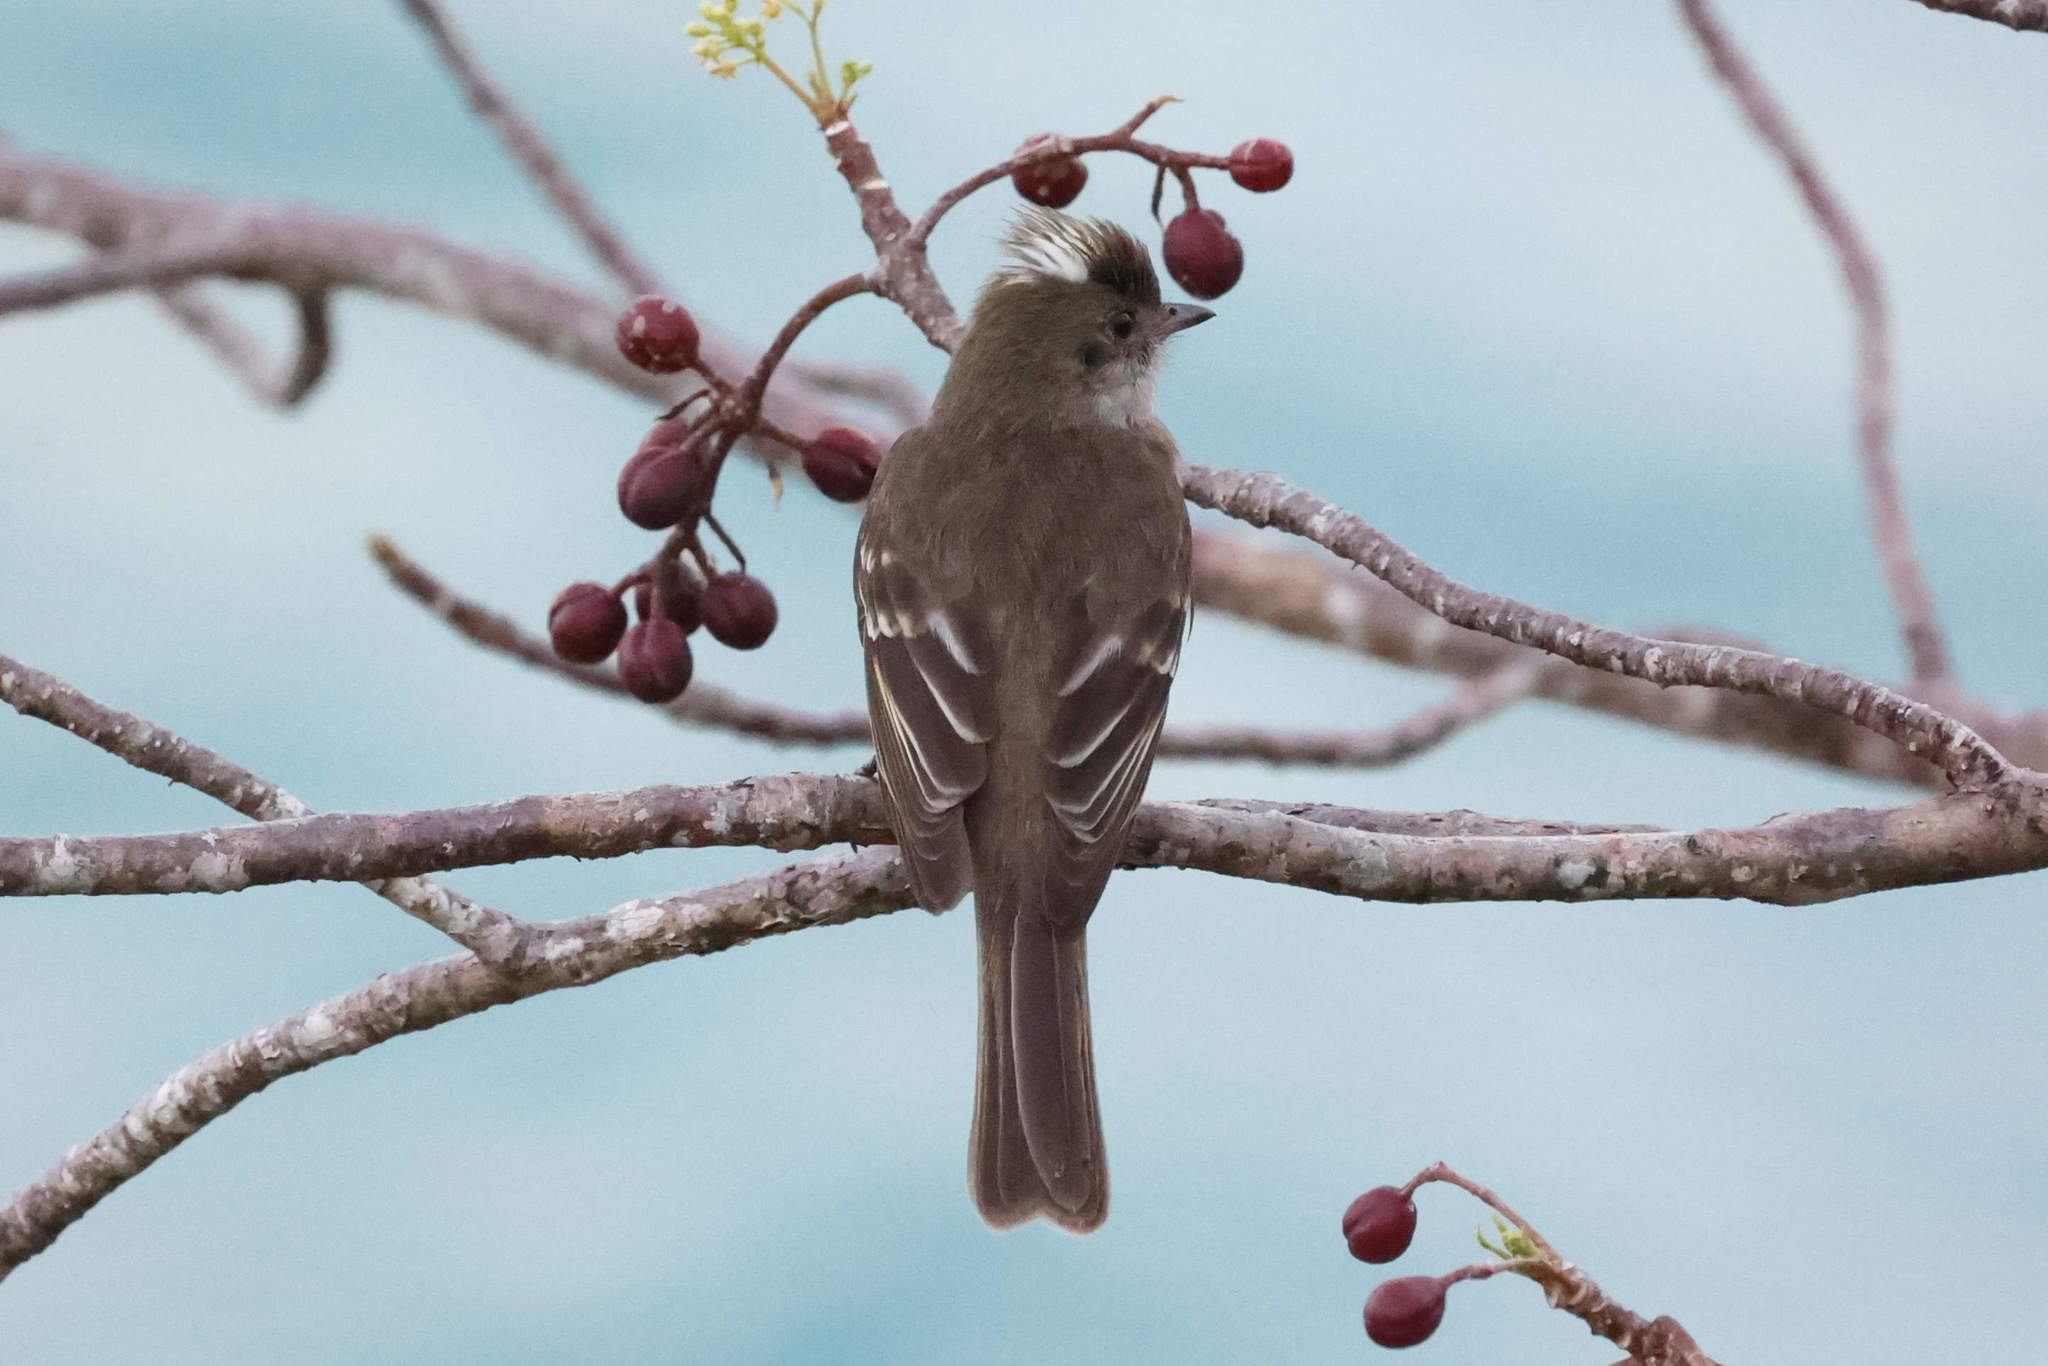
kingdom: Animalia
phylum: Chordata
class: Aves
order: Passeriformes
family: Tyrannidae
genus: Elaenia
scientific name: Elaenia martinica
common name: Caribbean elaenia
